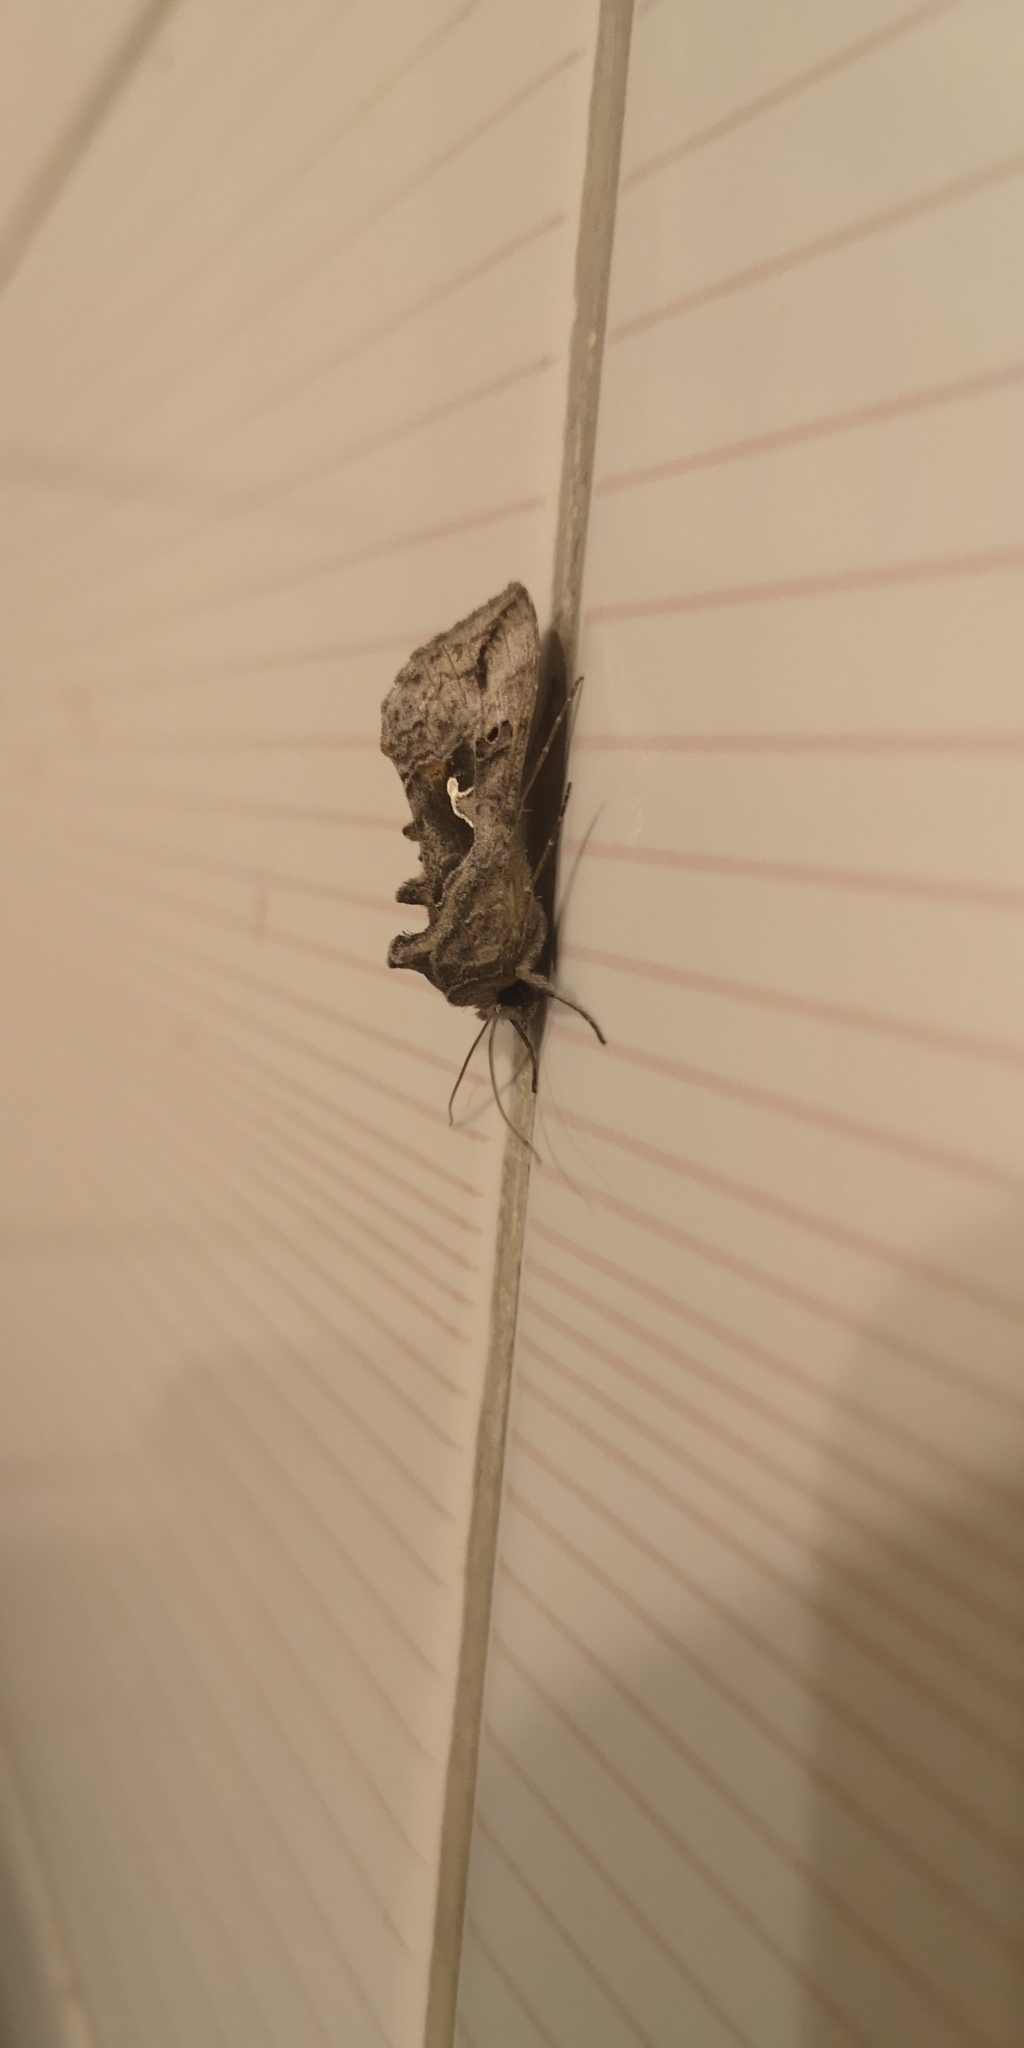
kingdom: Animalia
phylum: Arthropoda
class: Insecta
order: Lepidoptera
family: Noctuidae
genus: Autoplusia
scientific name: Autoplusia gammoides
